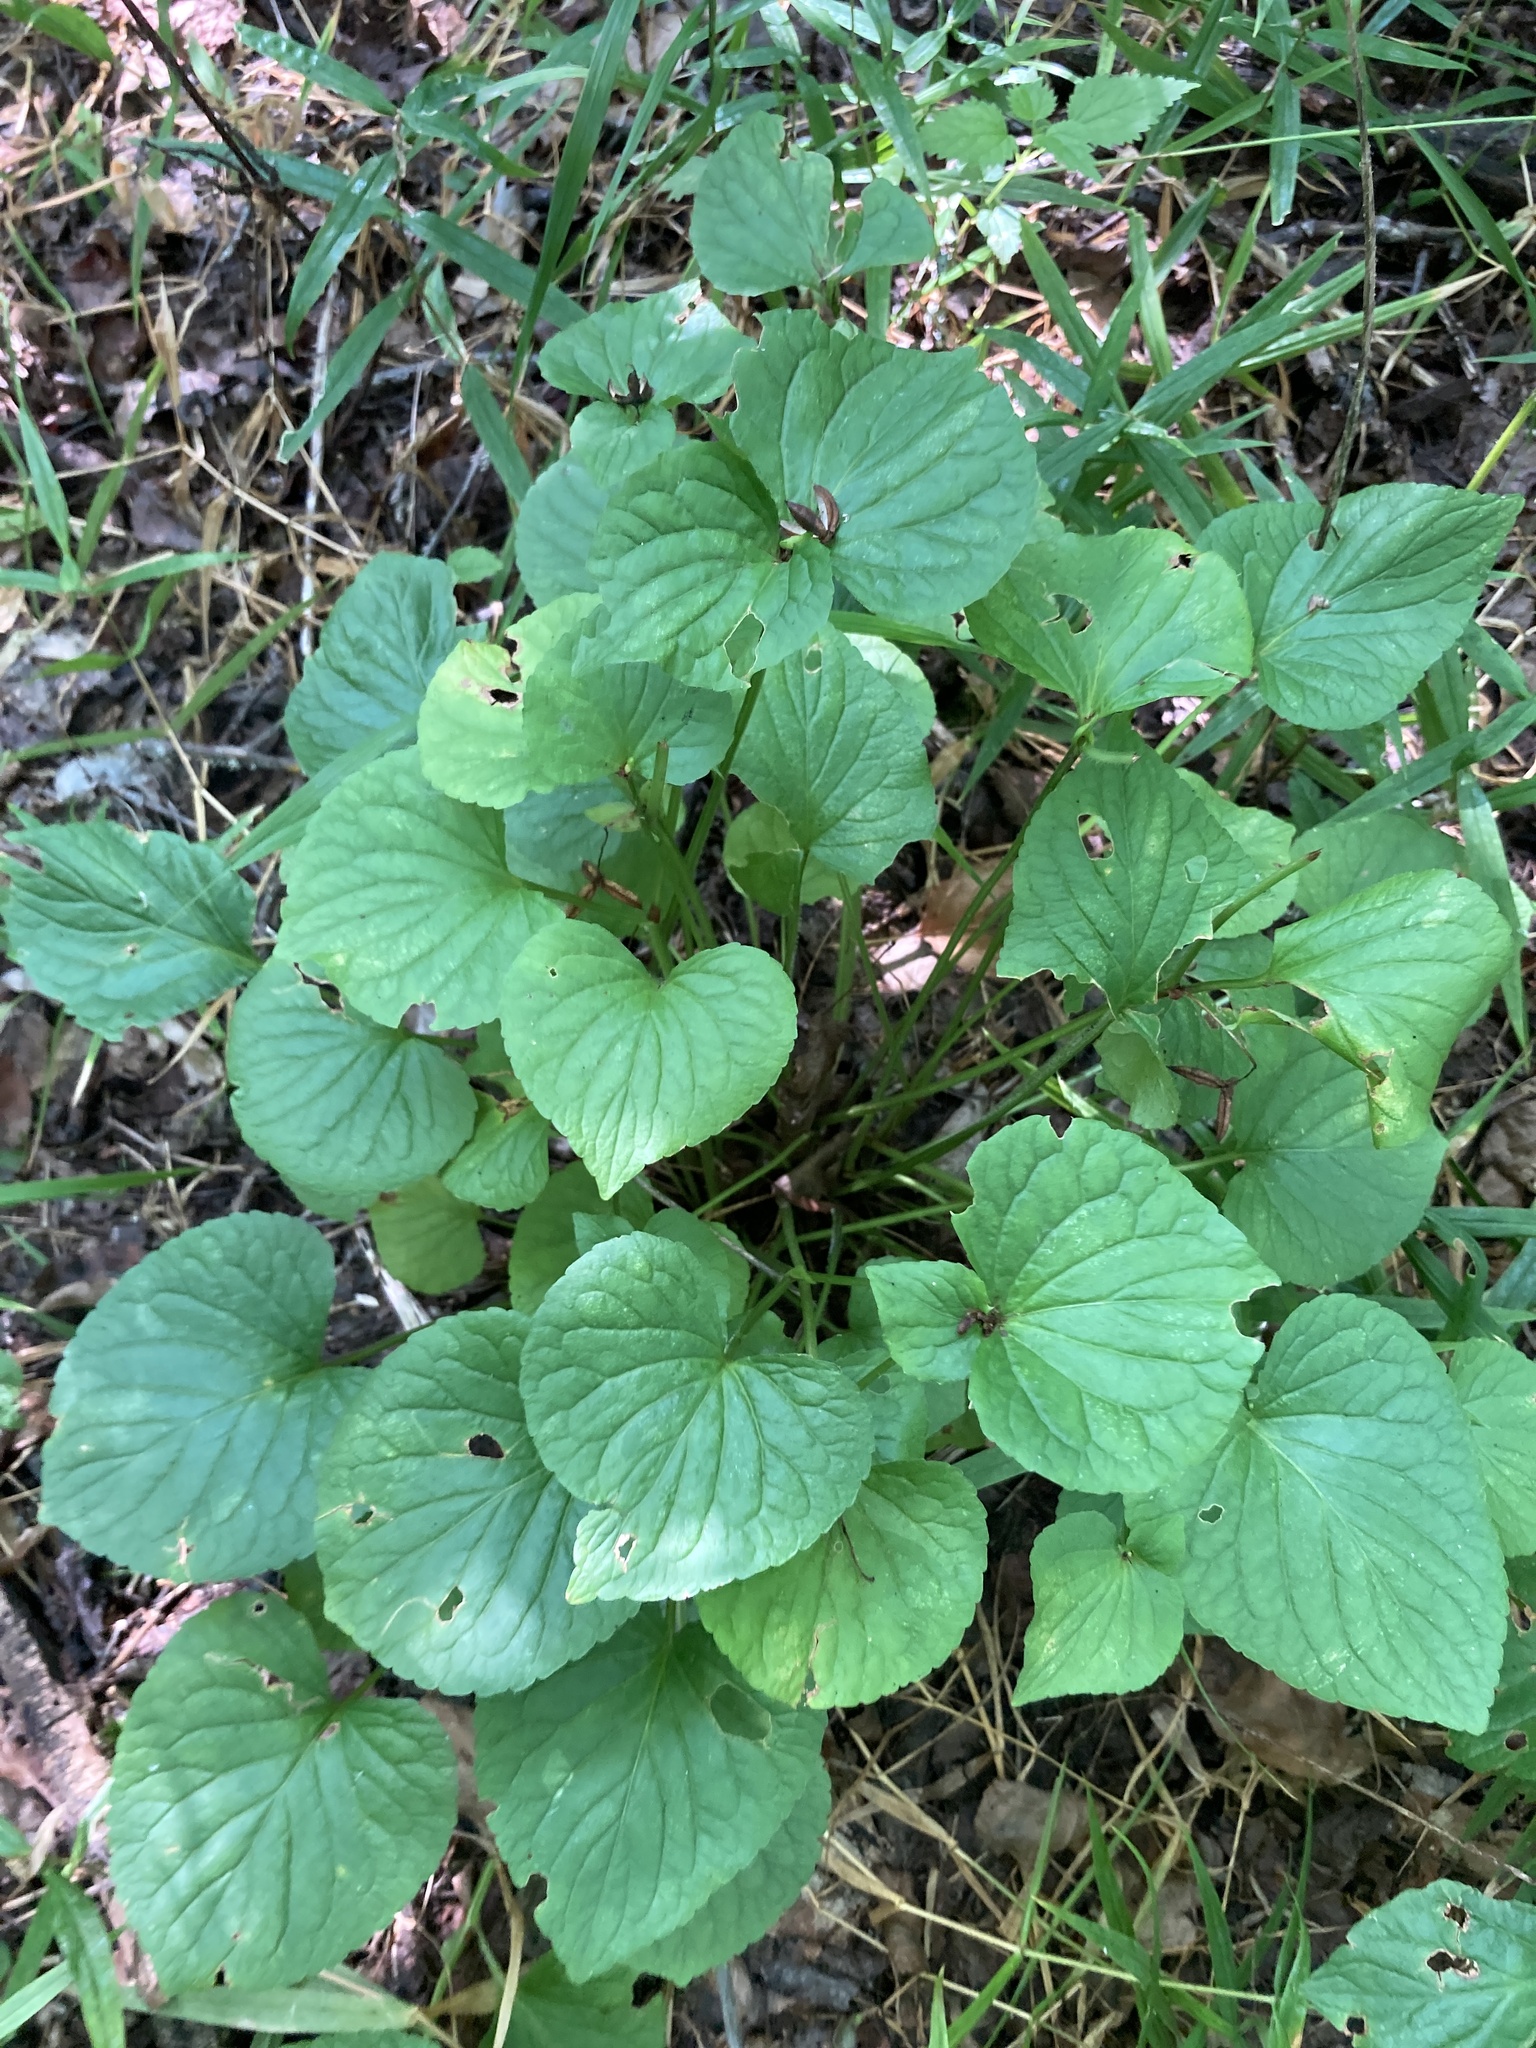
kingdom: Plantae
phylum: Tracheophyta
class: Magnoliopsida
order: Malpighiales
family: Violaceae
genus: Viola
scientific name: Viola mirabilis
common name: Wonder violet
